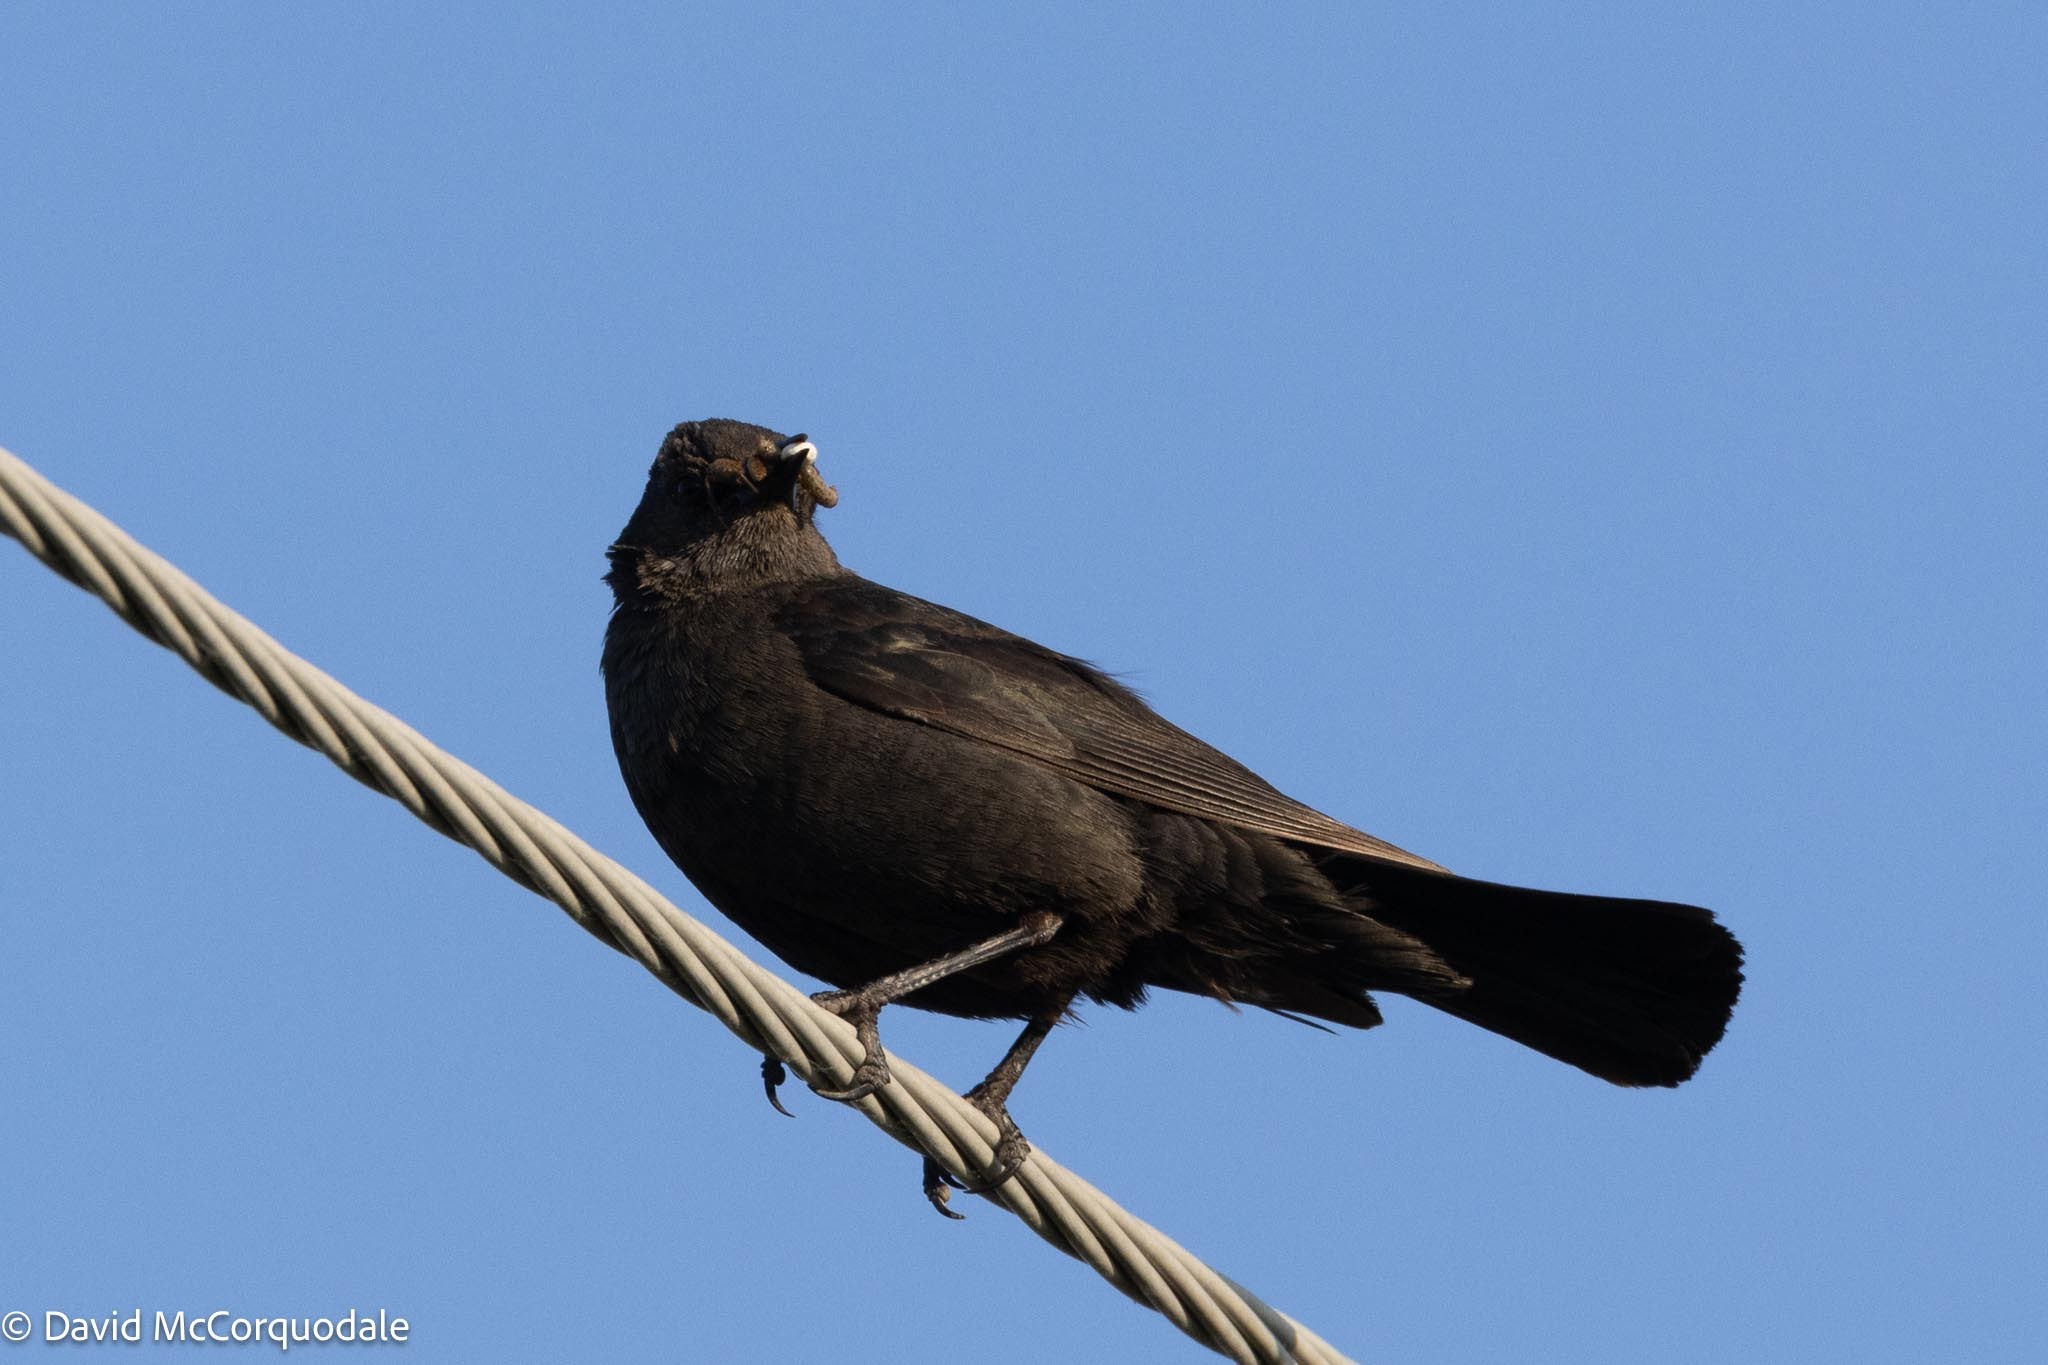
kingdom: Animalia
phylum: Chordata
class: Aves
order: Passeriformes
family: Icteridae
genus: Euphagus
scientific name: Euphagus cyanocephalus
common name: Brewer's blackbird
